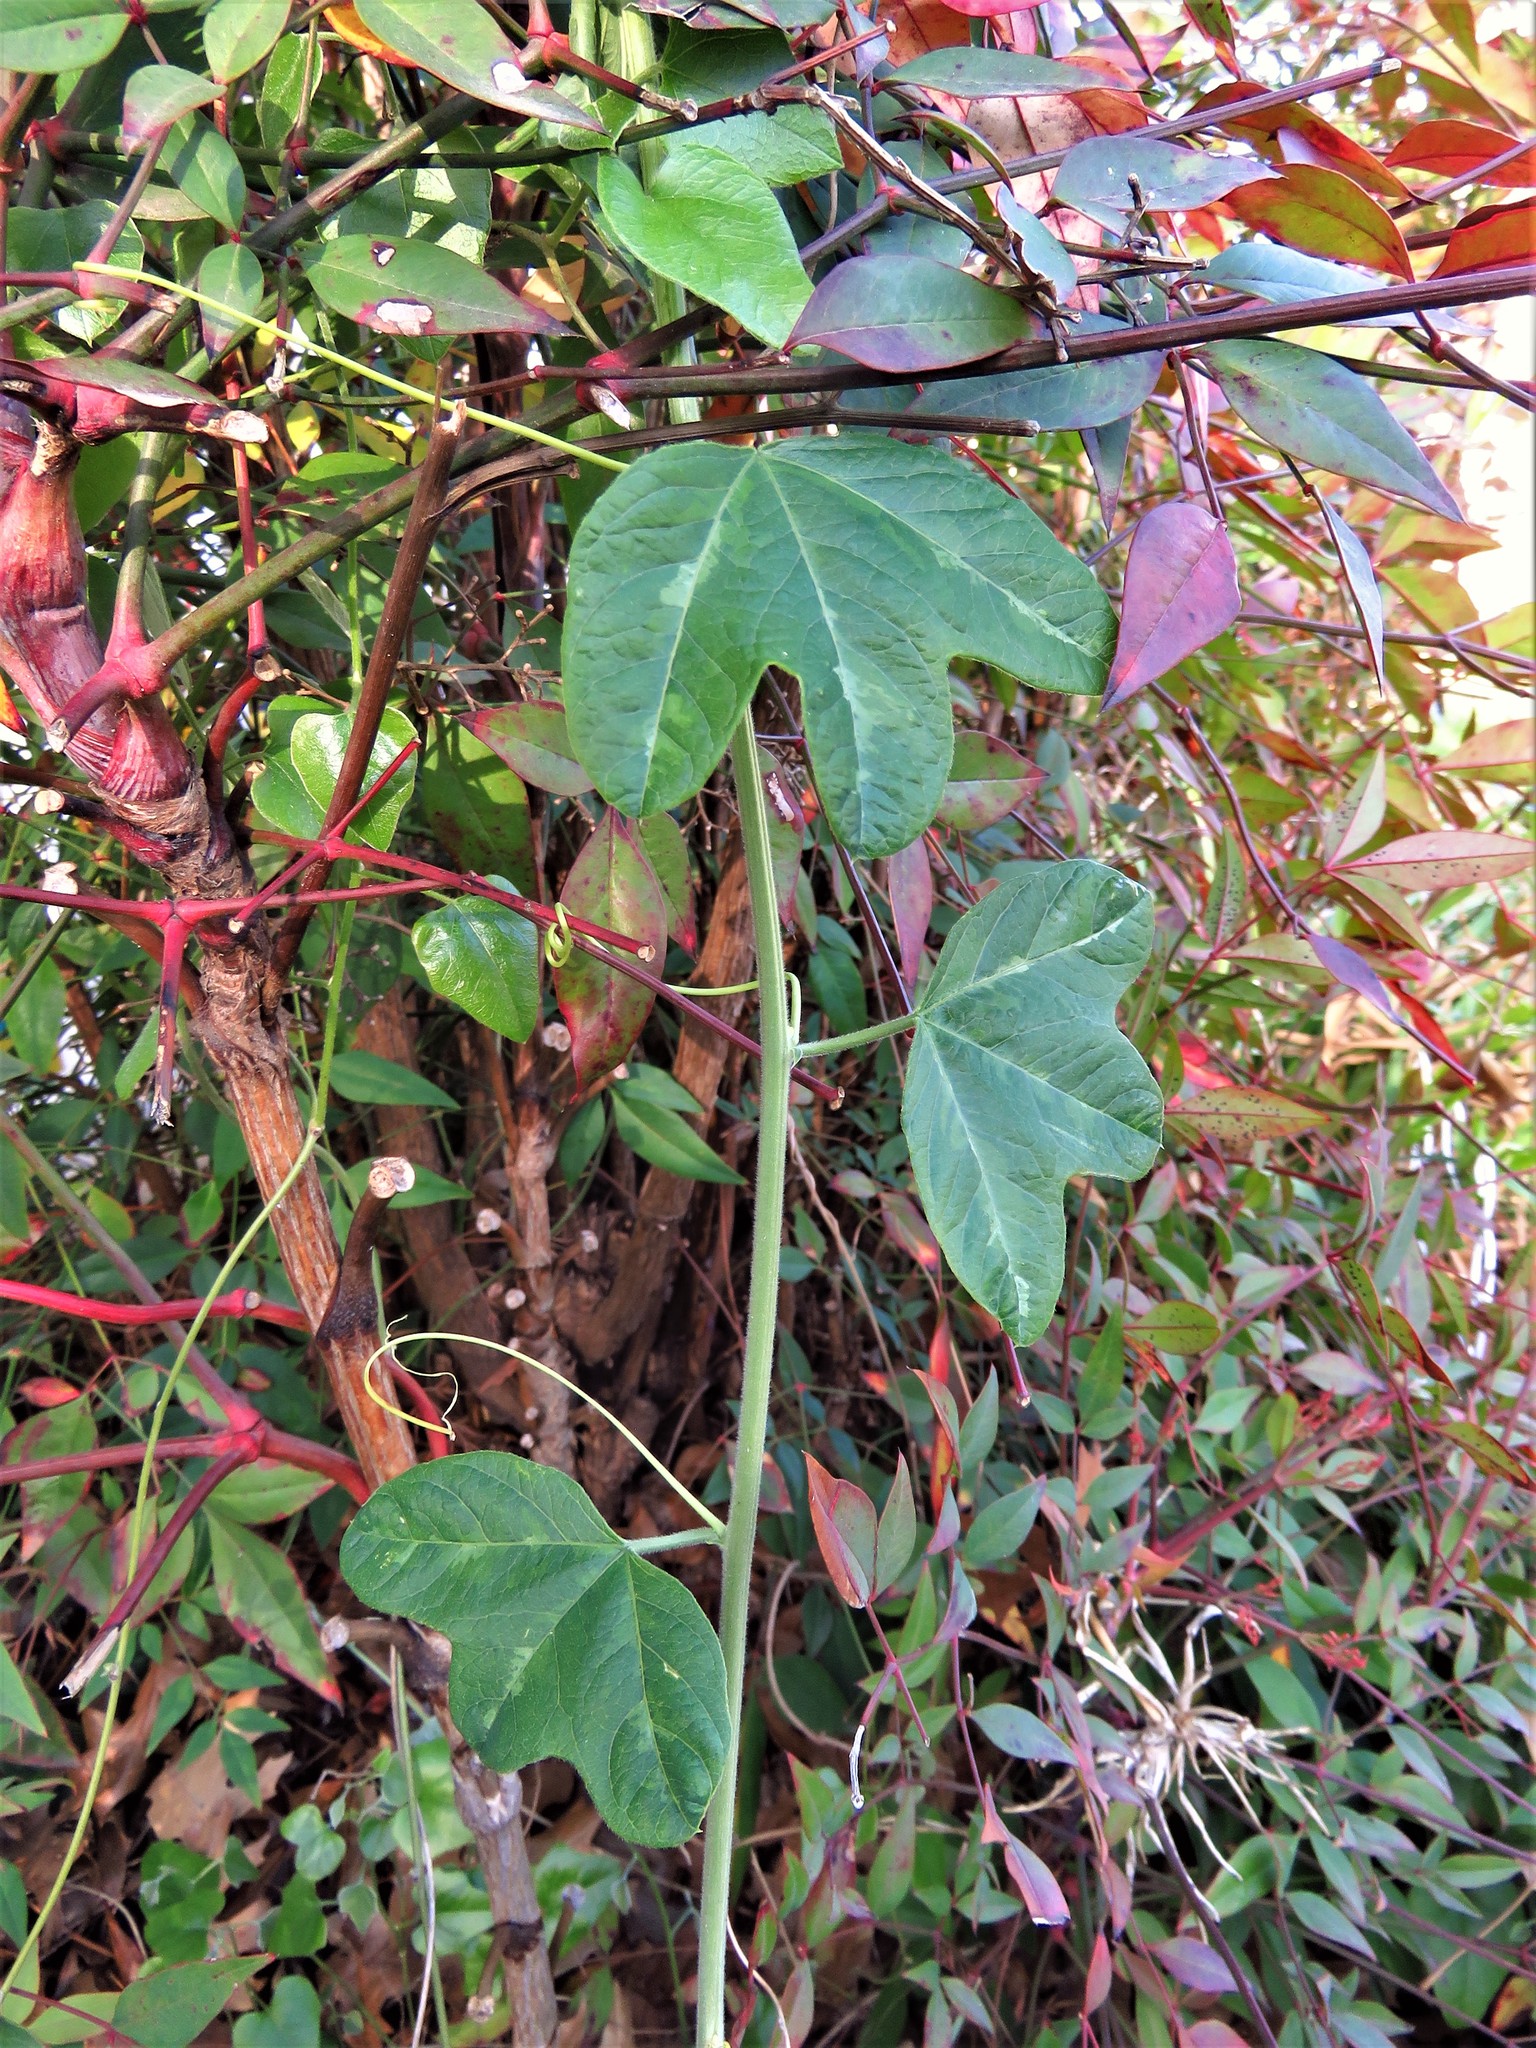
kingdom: Plantae
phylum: Tracheophyta
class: Magnoliopsida
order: Malpighiales
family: Passifloraceae
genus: Passiflora
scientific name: Passiflora lutea
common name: Yellow passionflower
